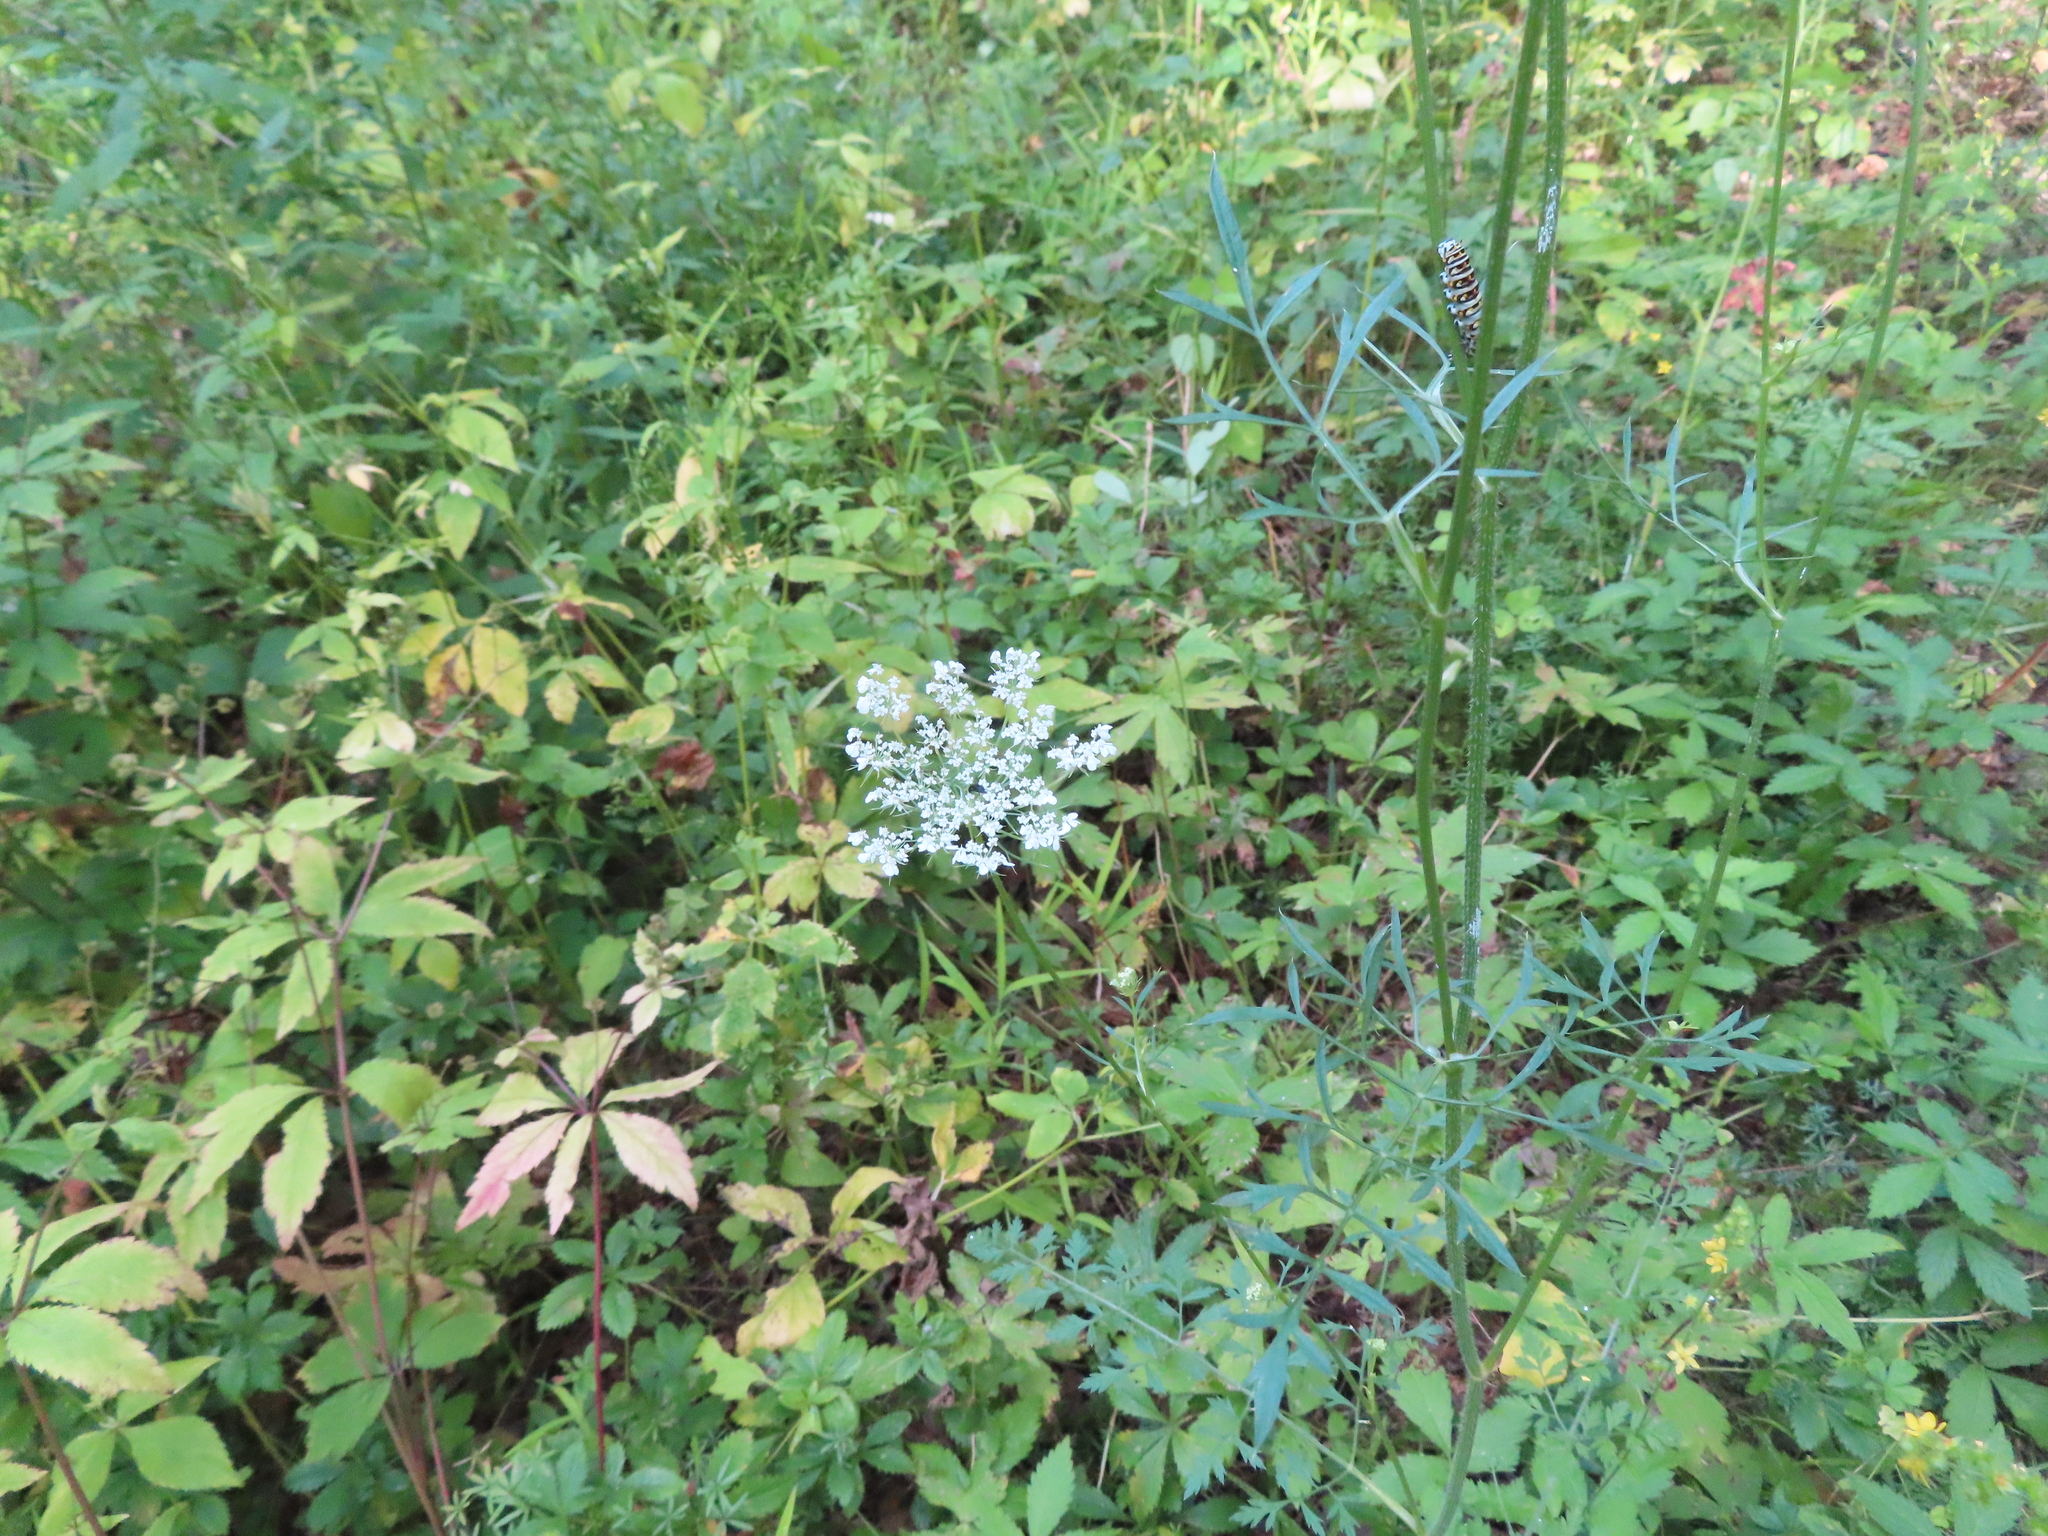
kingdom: Plantae
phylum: Tracheophyta
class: Magnoliopsida
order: Apiales
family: Apiaceae
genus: Daucus
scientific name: Daucus carota
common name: Wild carrot
